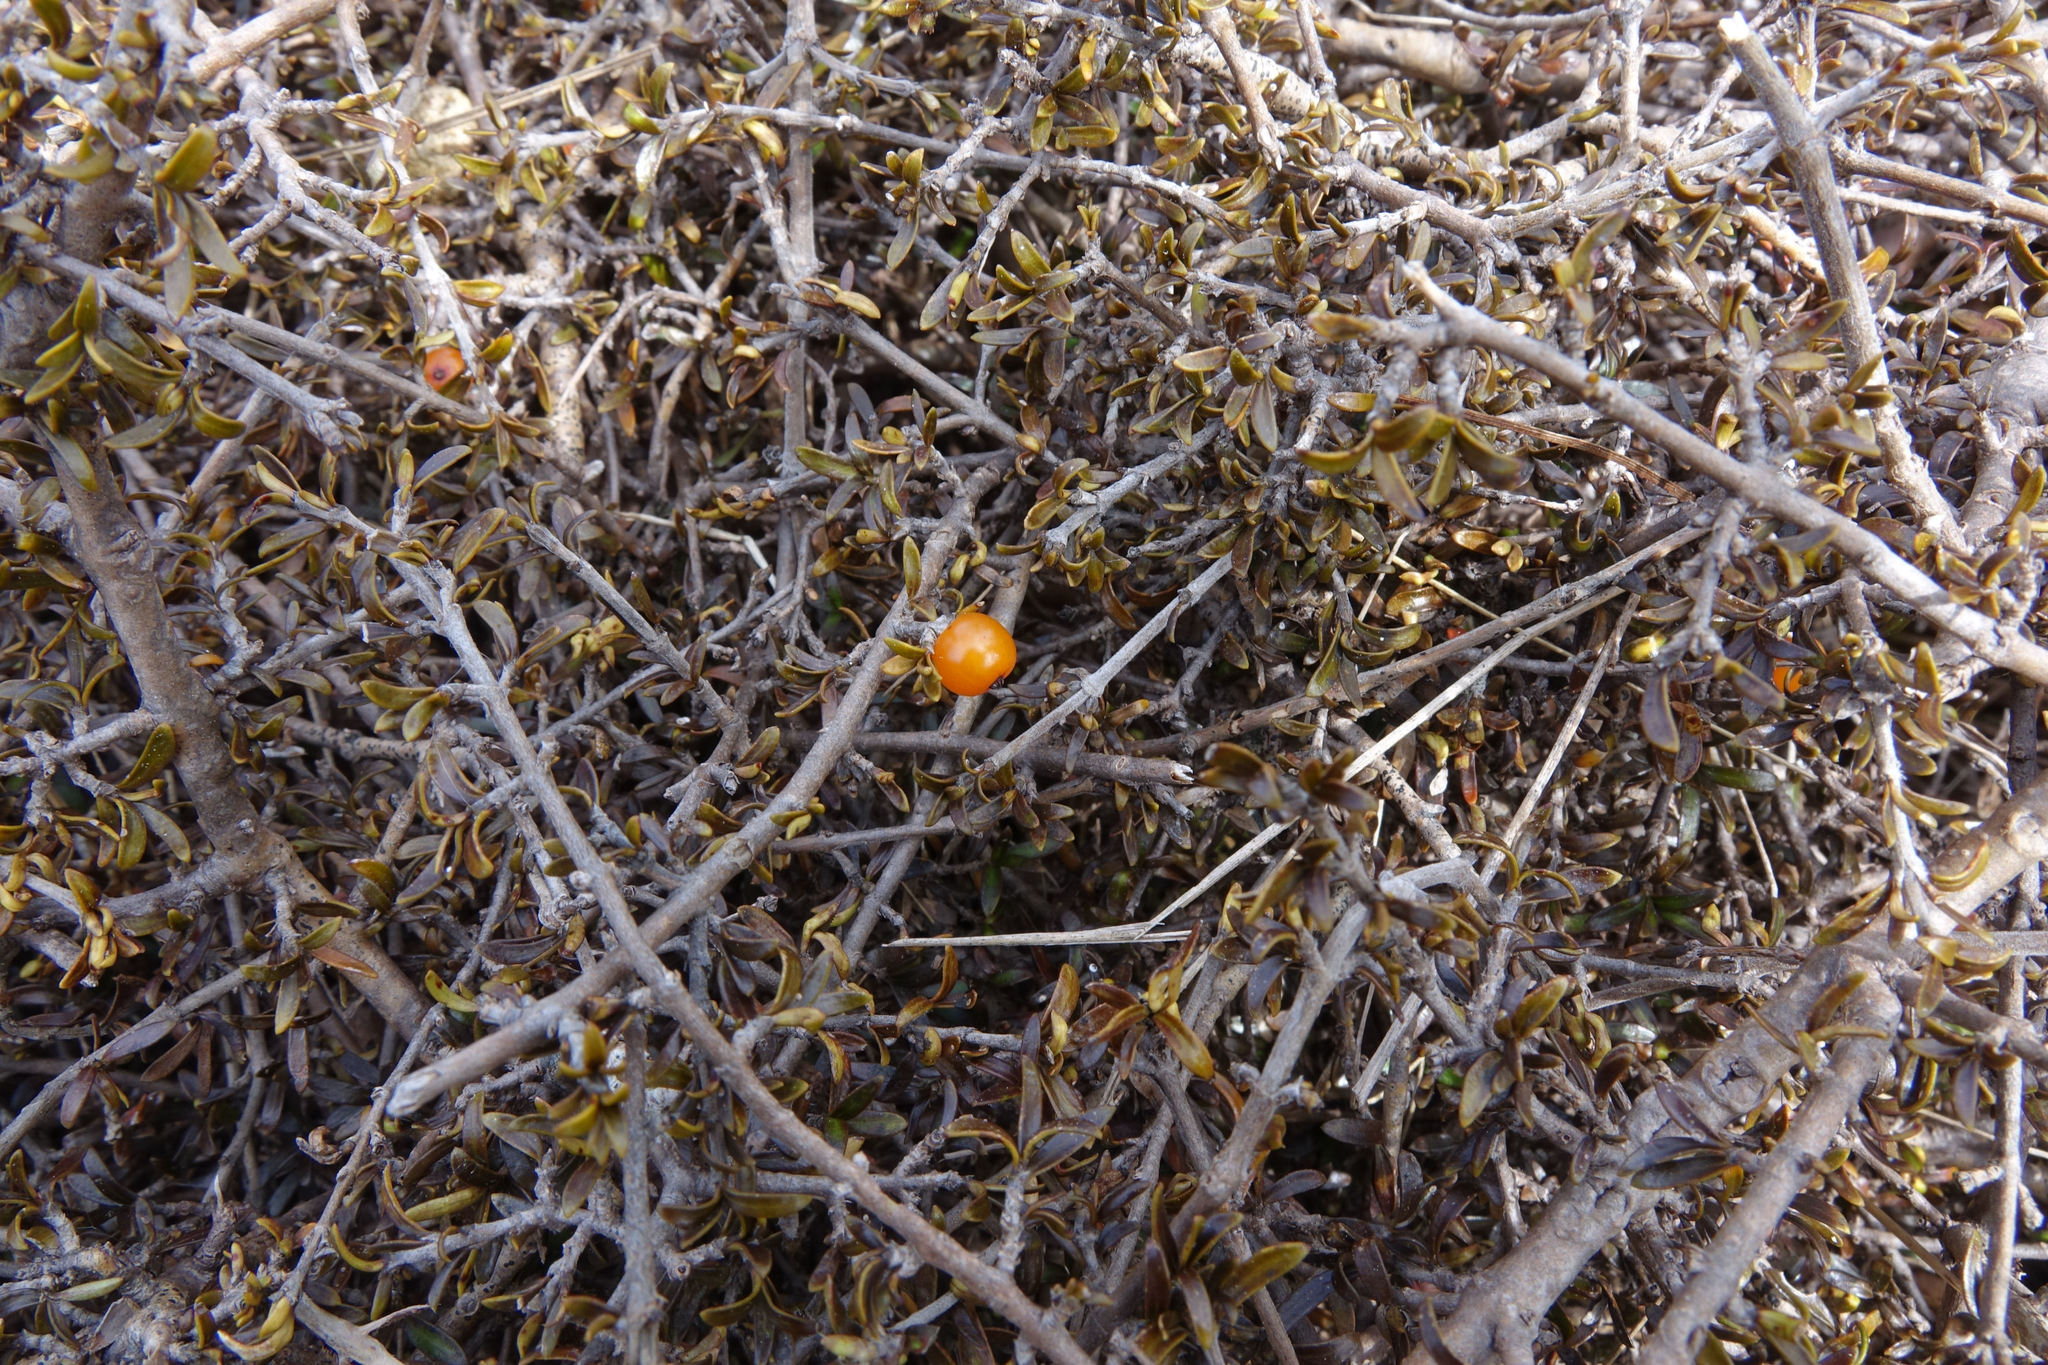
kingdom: Plantae
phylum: Tracheophyta
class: Magnoliopsida
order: Gentianales
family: Rubiaceae
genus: Coprosma
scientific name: Coprosma cheesemanii
